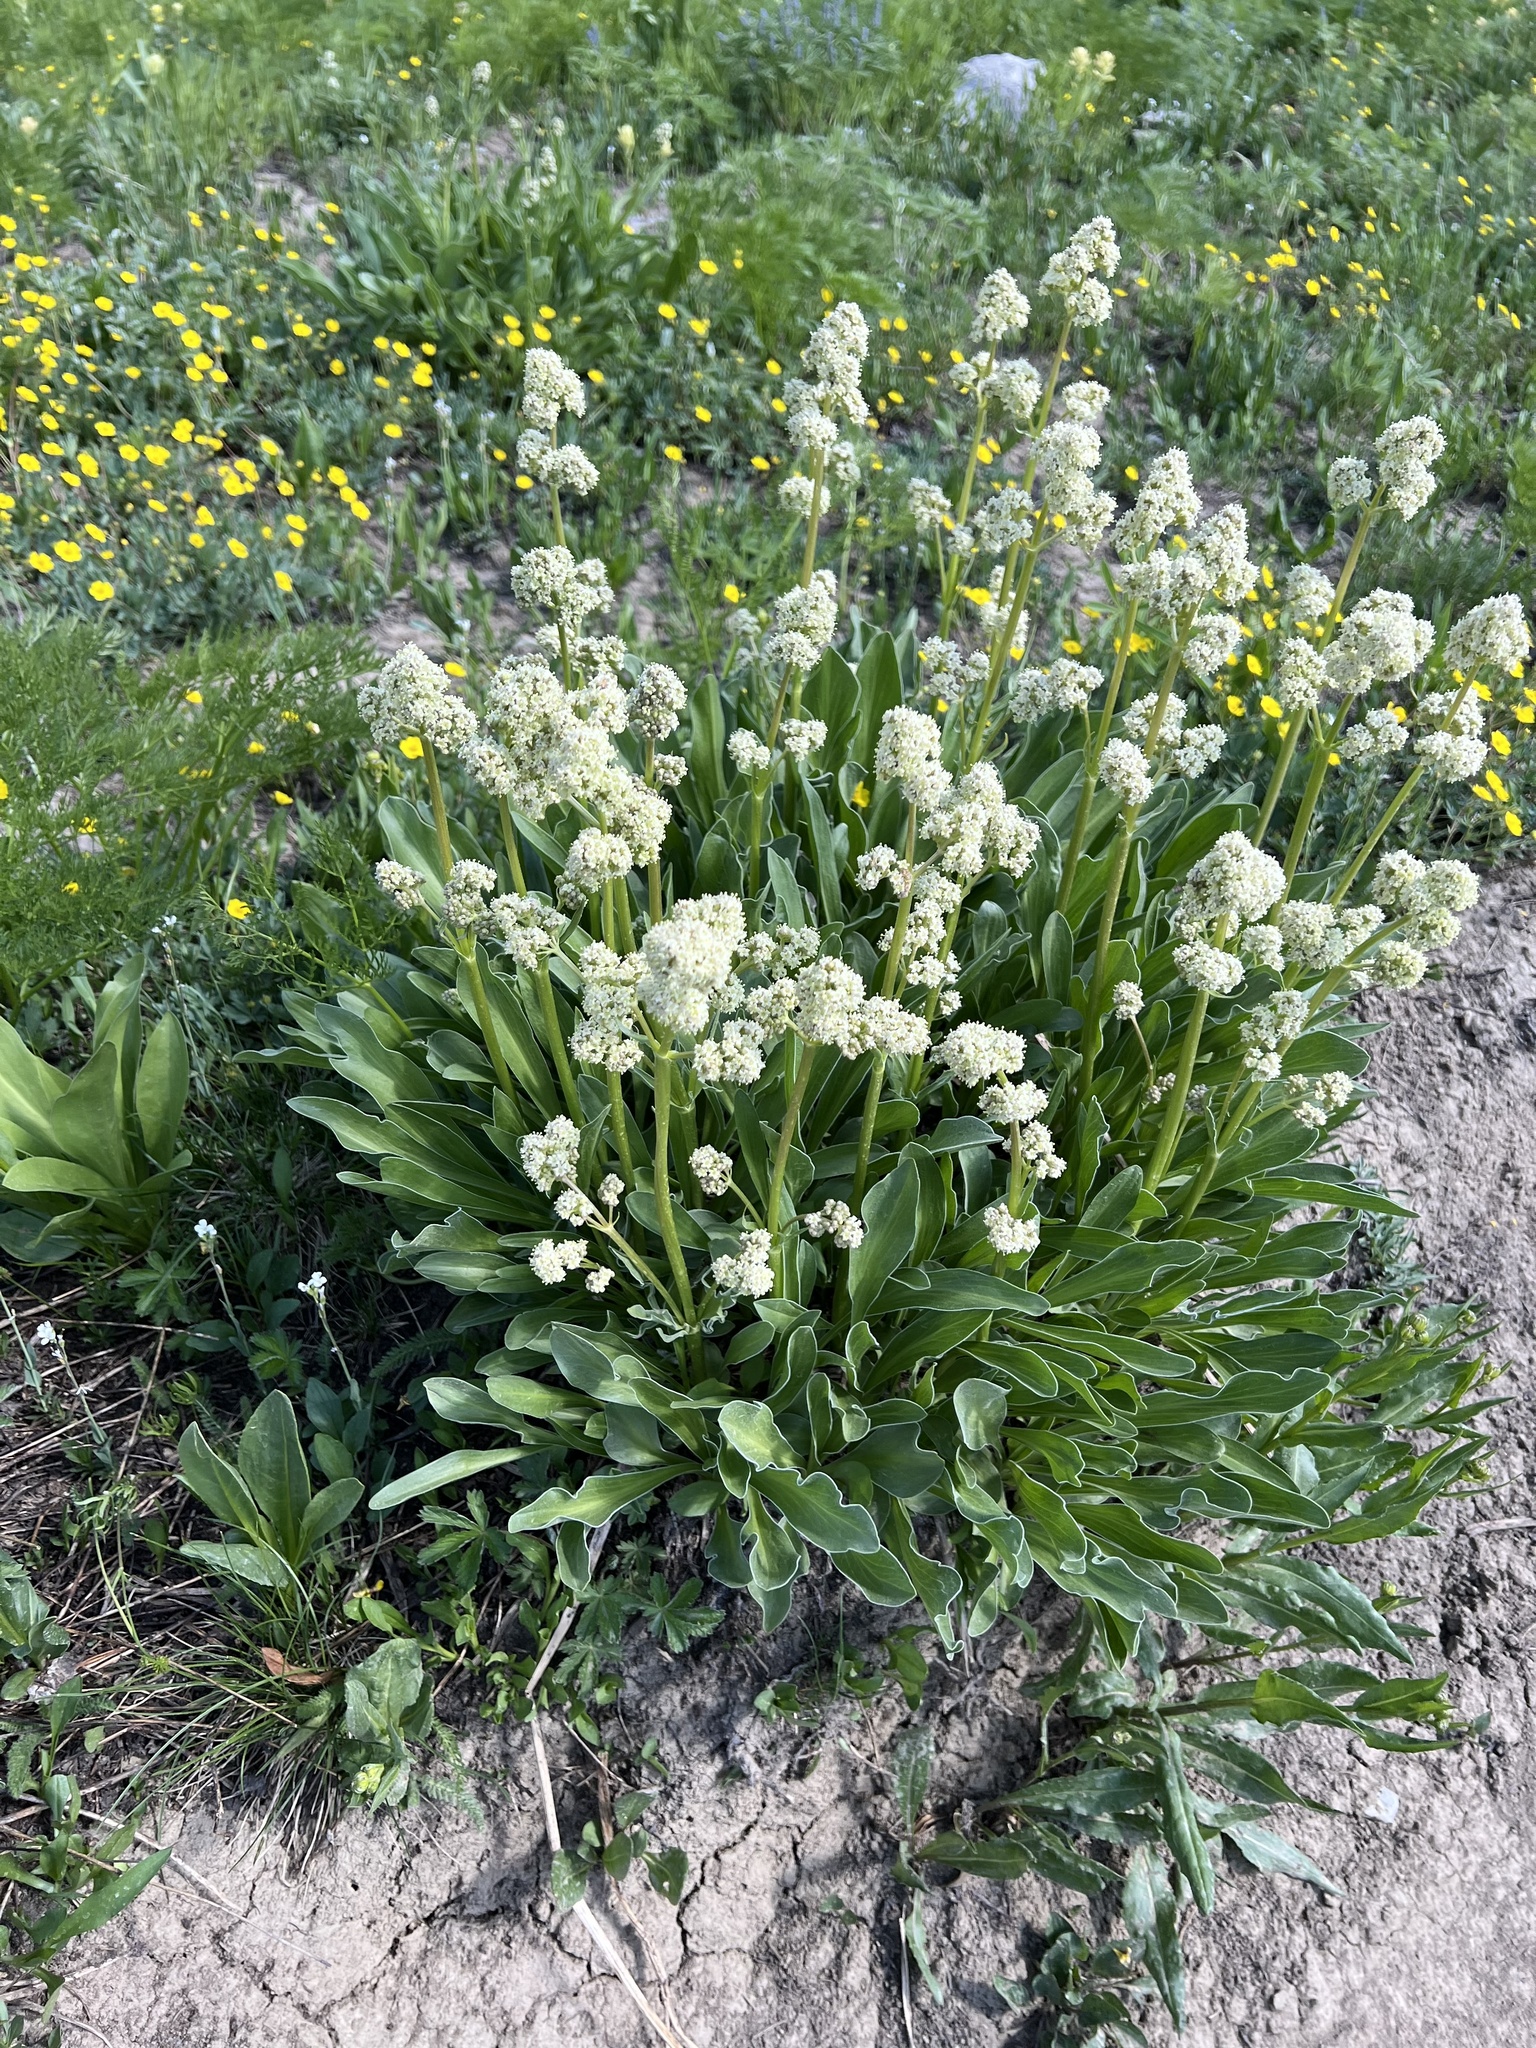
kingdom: Plantae
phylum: Tracheophyta
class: Magnoliopsida
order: Dipsacales
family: Caprifoliaceae
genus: Valeriana
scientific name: Valeriana edulis
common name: Taproot valerian
